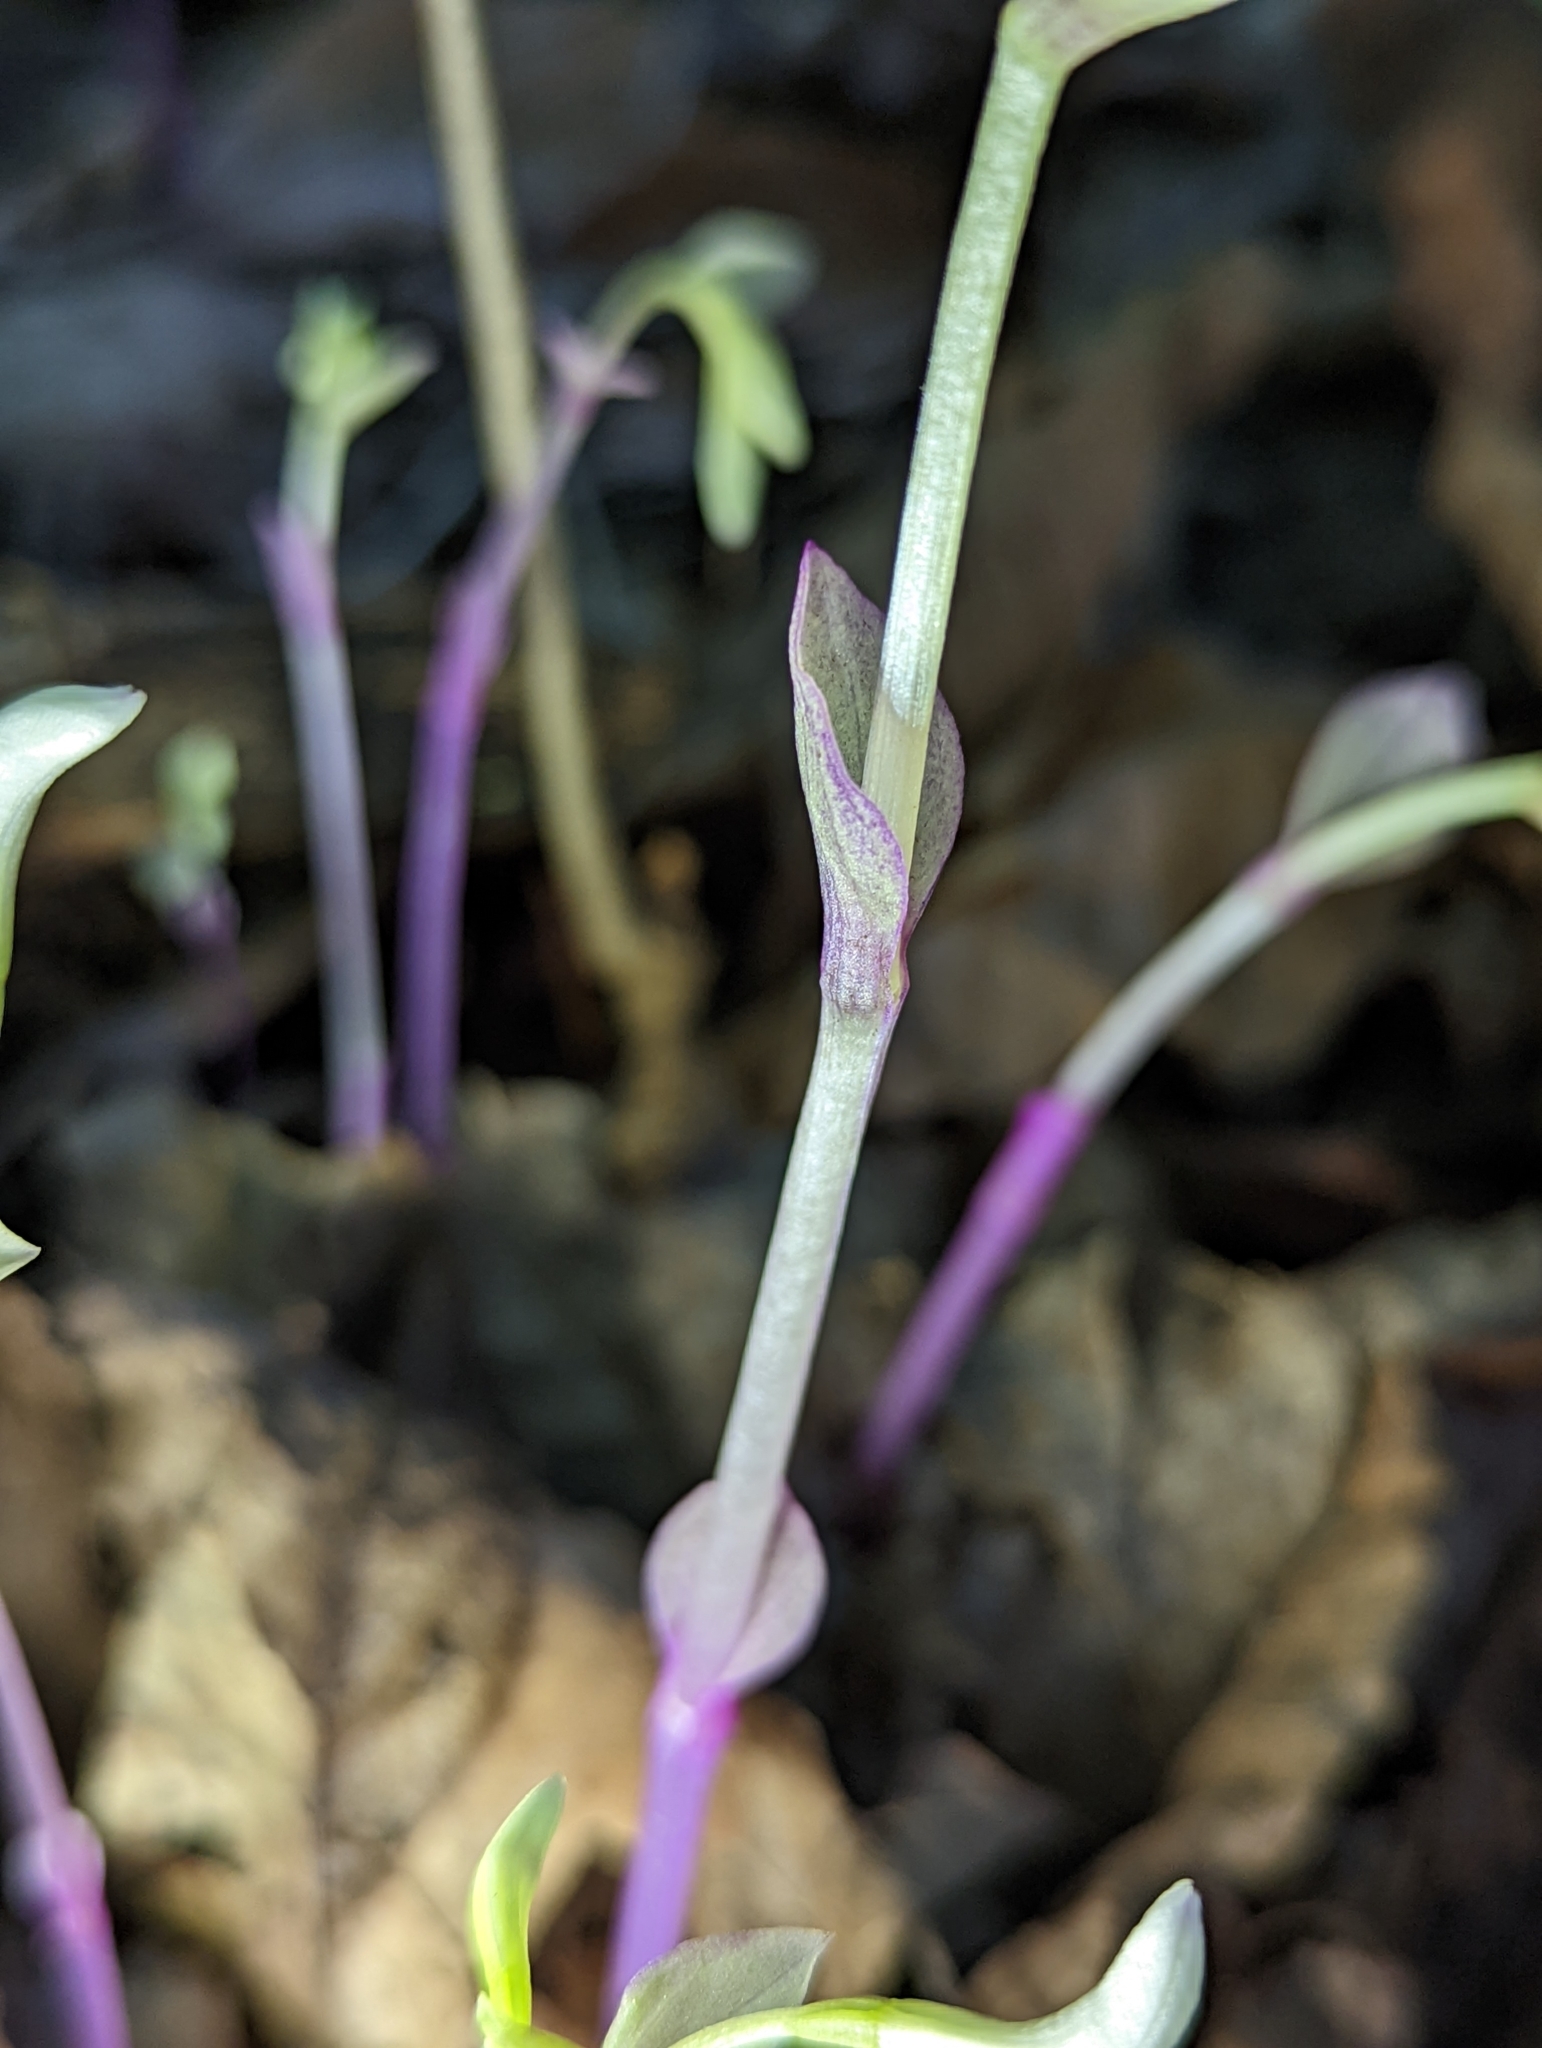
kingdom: Plantae
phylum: Tracheophyta
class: Liliopsida
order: Asparagales
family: Orchidaceae
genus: Triphora
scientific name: Triphora trianthophoros
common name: Three birds orchid
